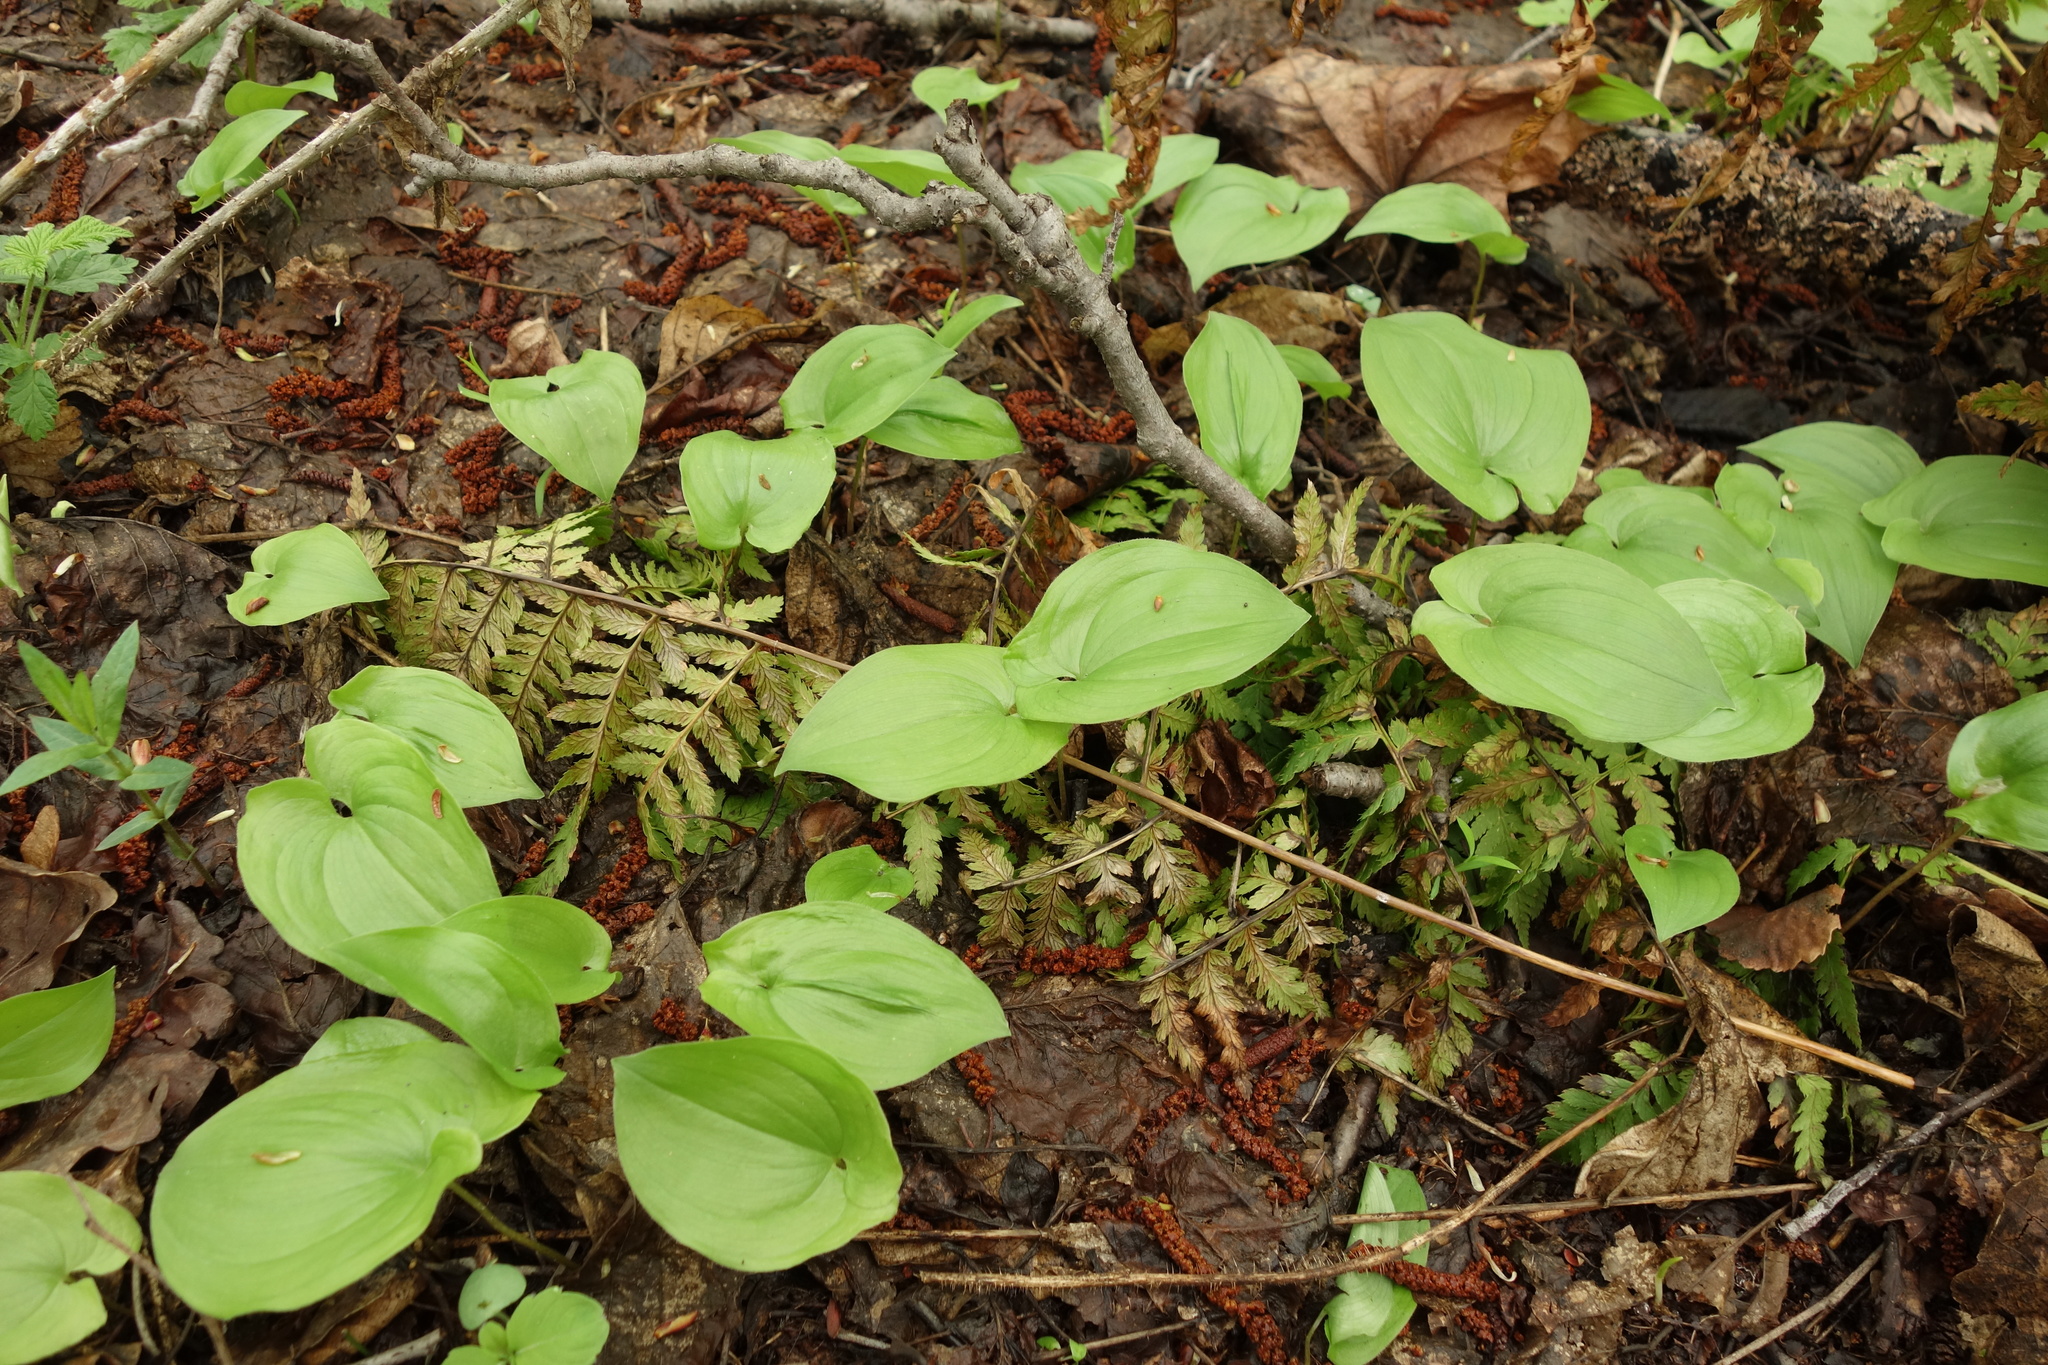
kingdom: Plantae
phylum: Tracheophyta
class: Liliopsida
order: Asparagales
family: Asparagaceae
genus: Maianthemum
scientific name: Maianthemum bifolium
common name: May lily
